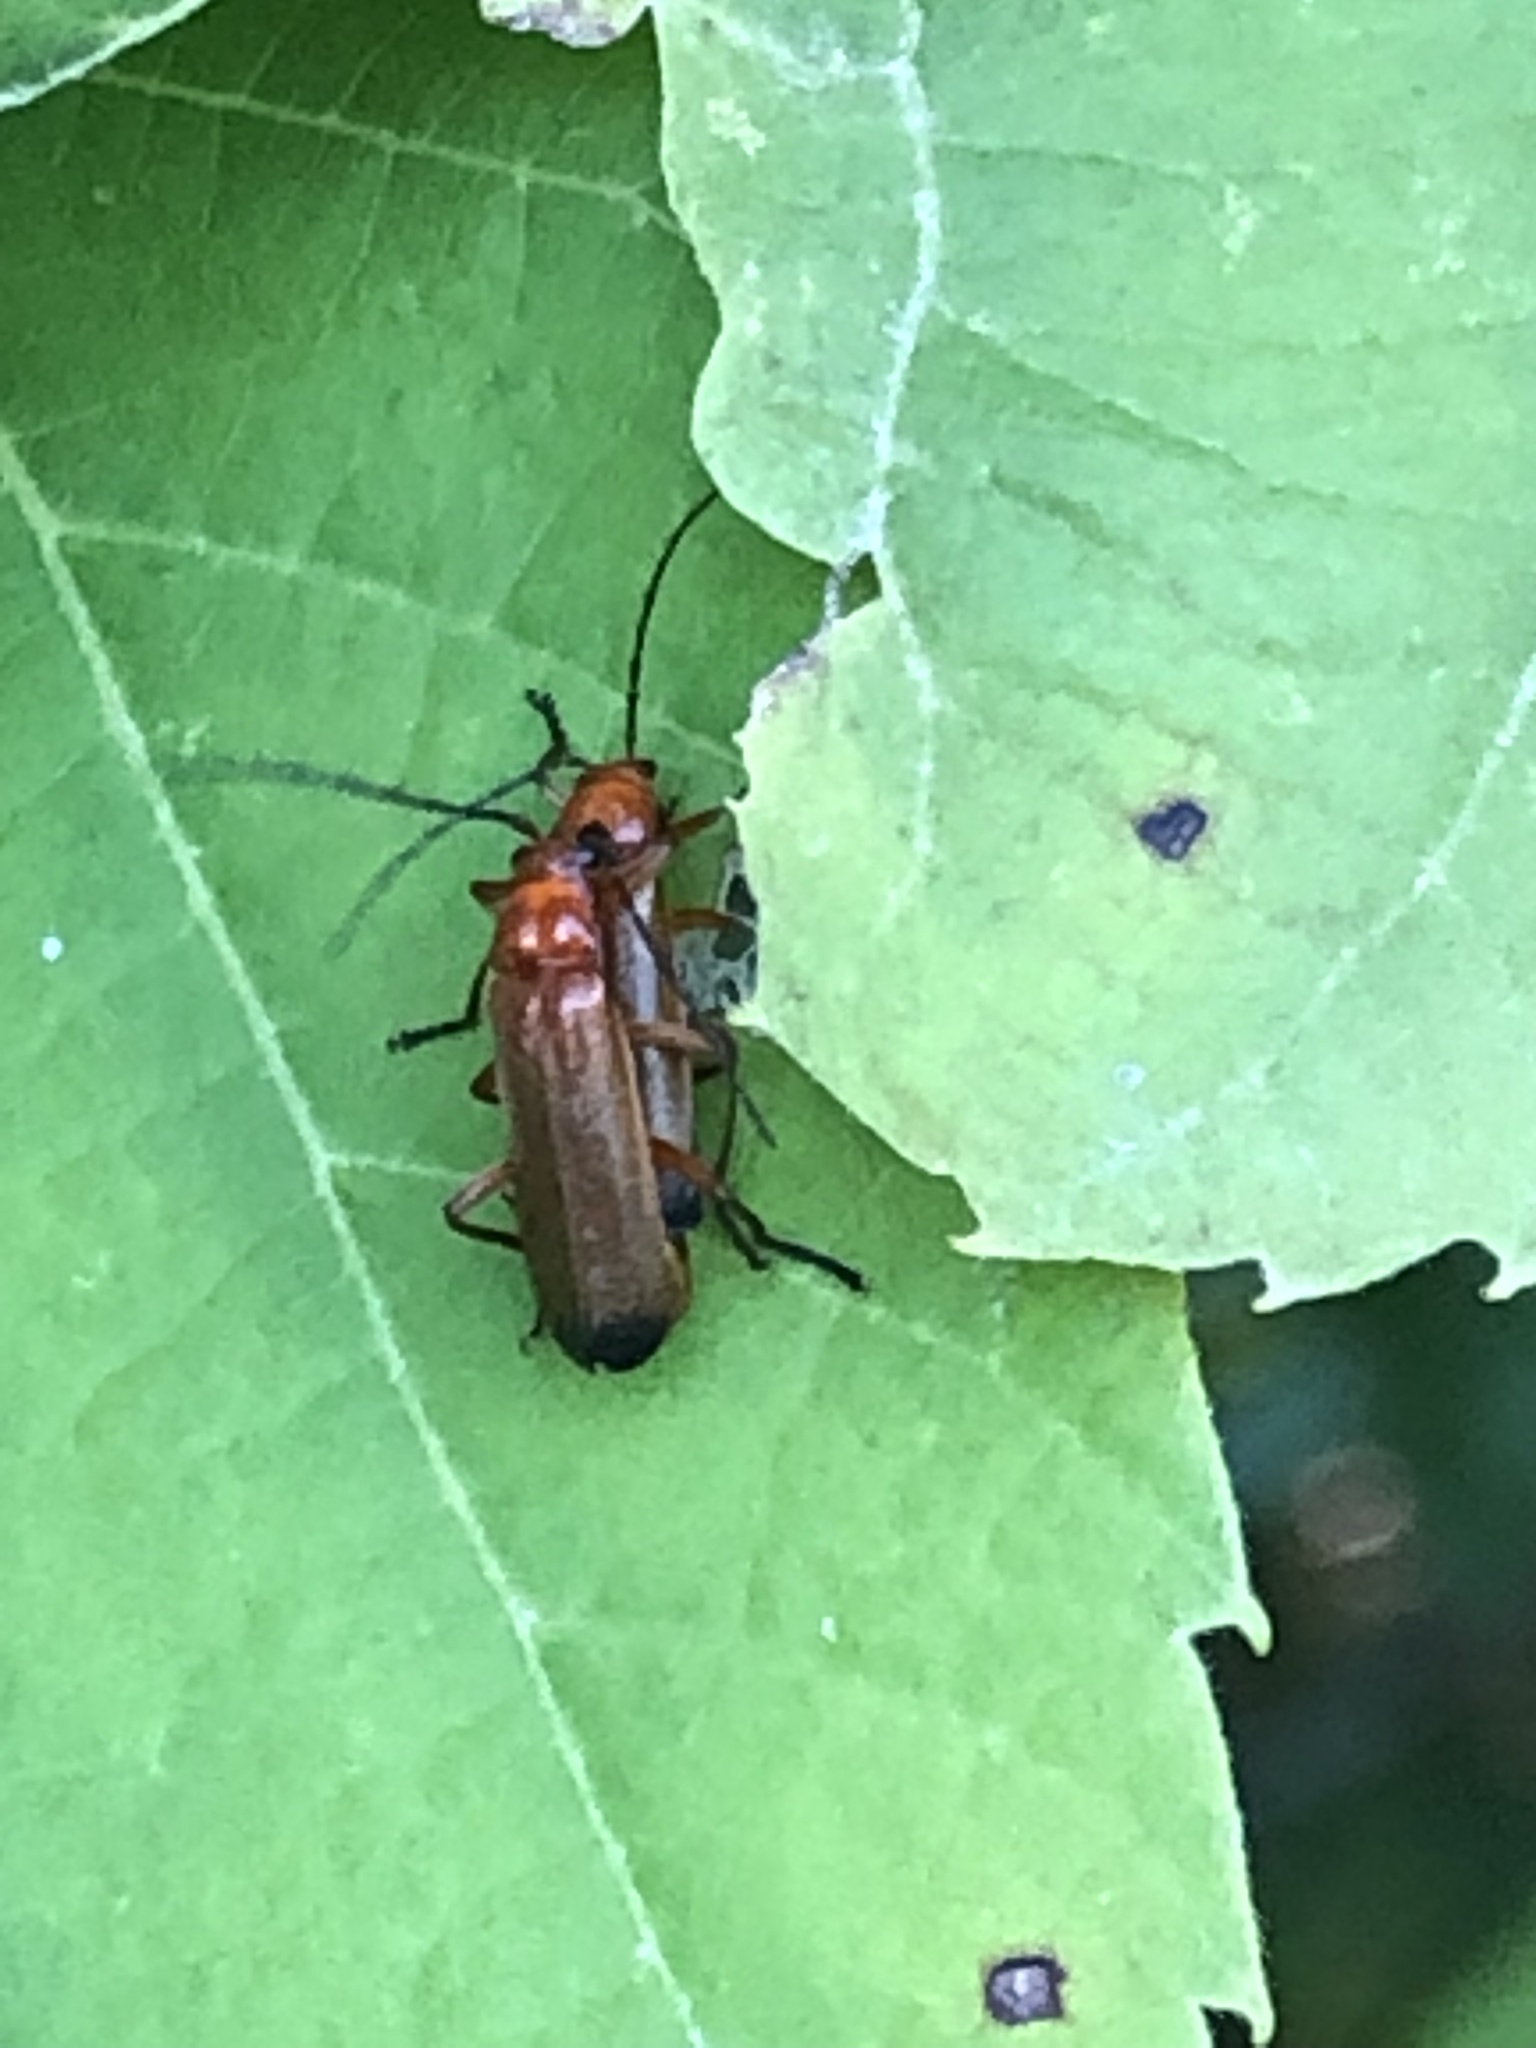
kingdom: Animalia
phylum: Arthropoda
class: Insecta
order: Coleoptera
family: Cantharidae
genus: Rhagonycha
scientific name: Rhagonycha fulva
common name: Common red soldier beetle
